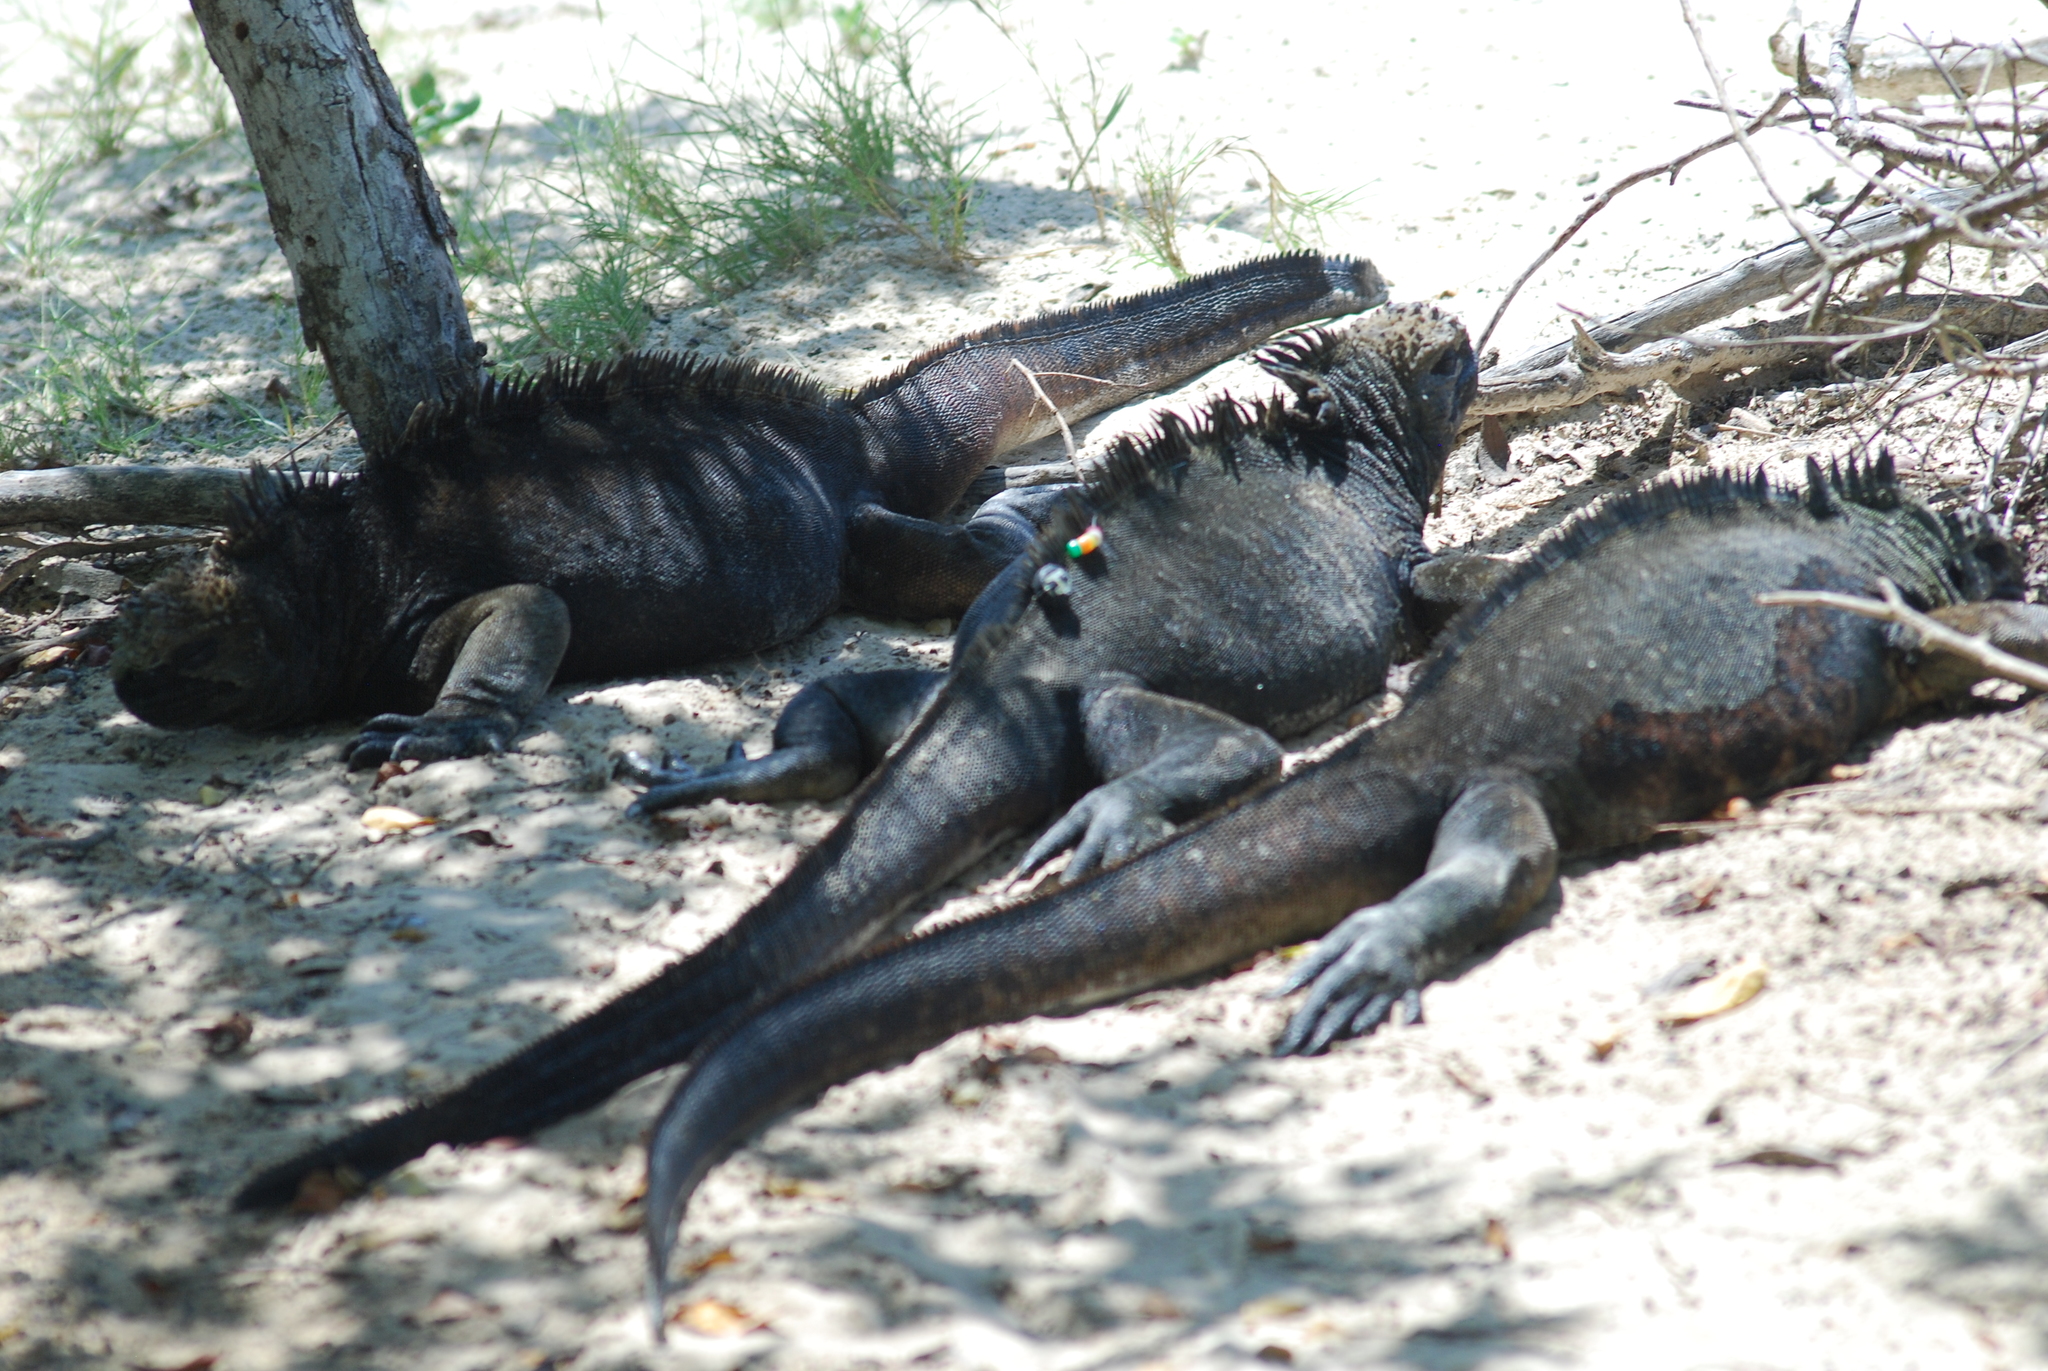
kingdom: Animalia
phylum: Chordata
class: Squamata
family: Iguanidae
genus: Amblyrhynchus
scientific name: Amblyrhynchus cristatus
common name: Marine iguana
